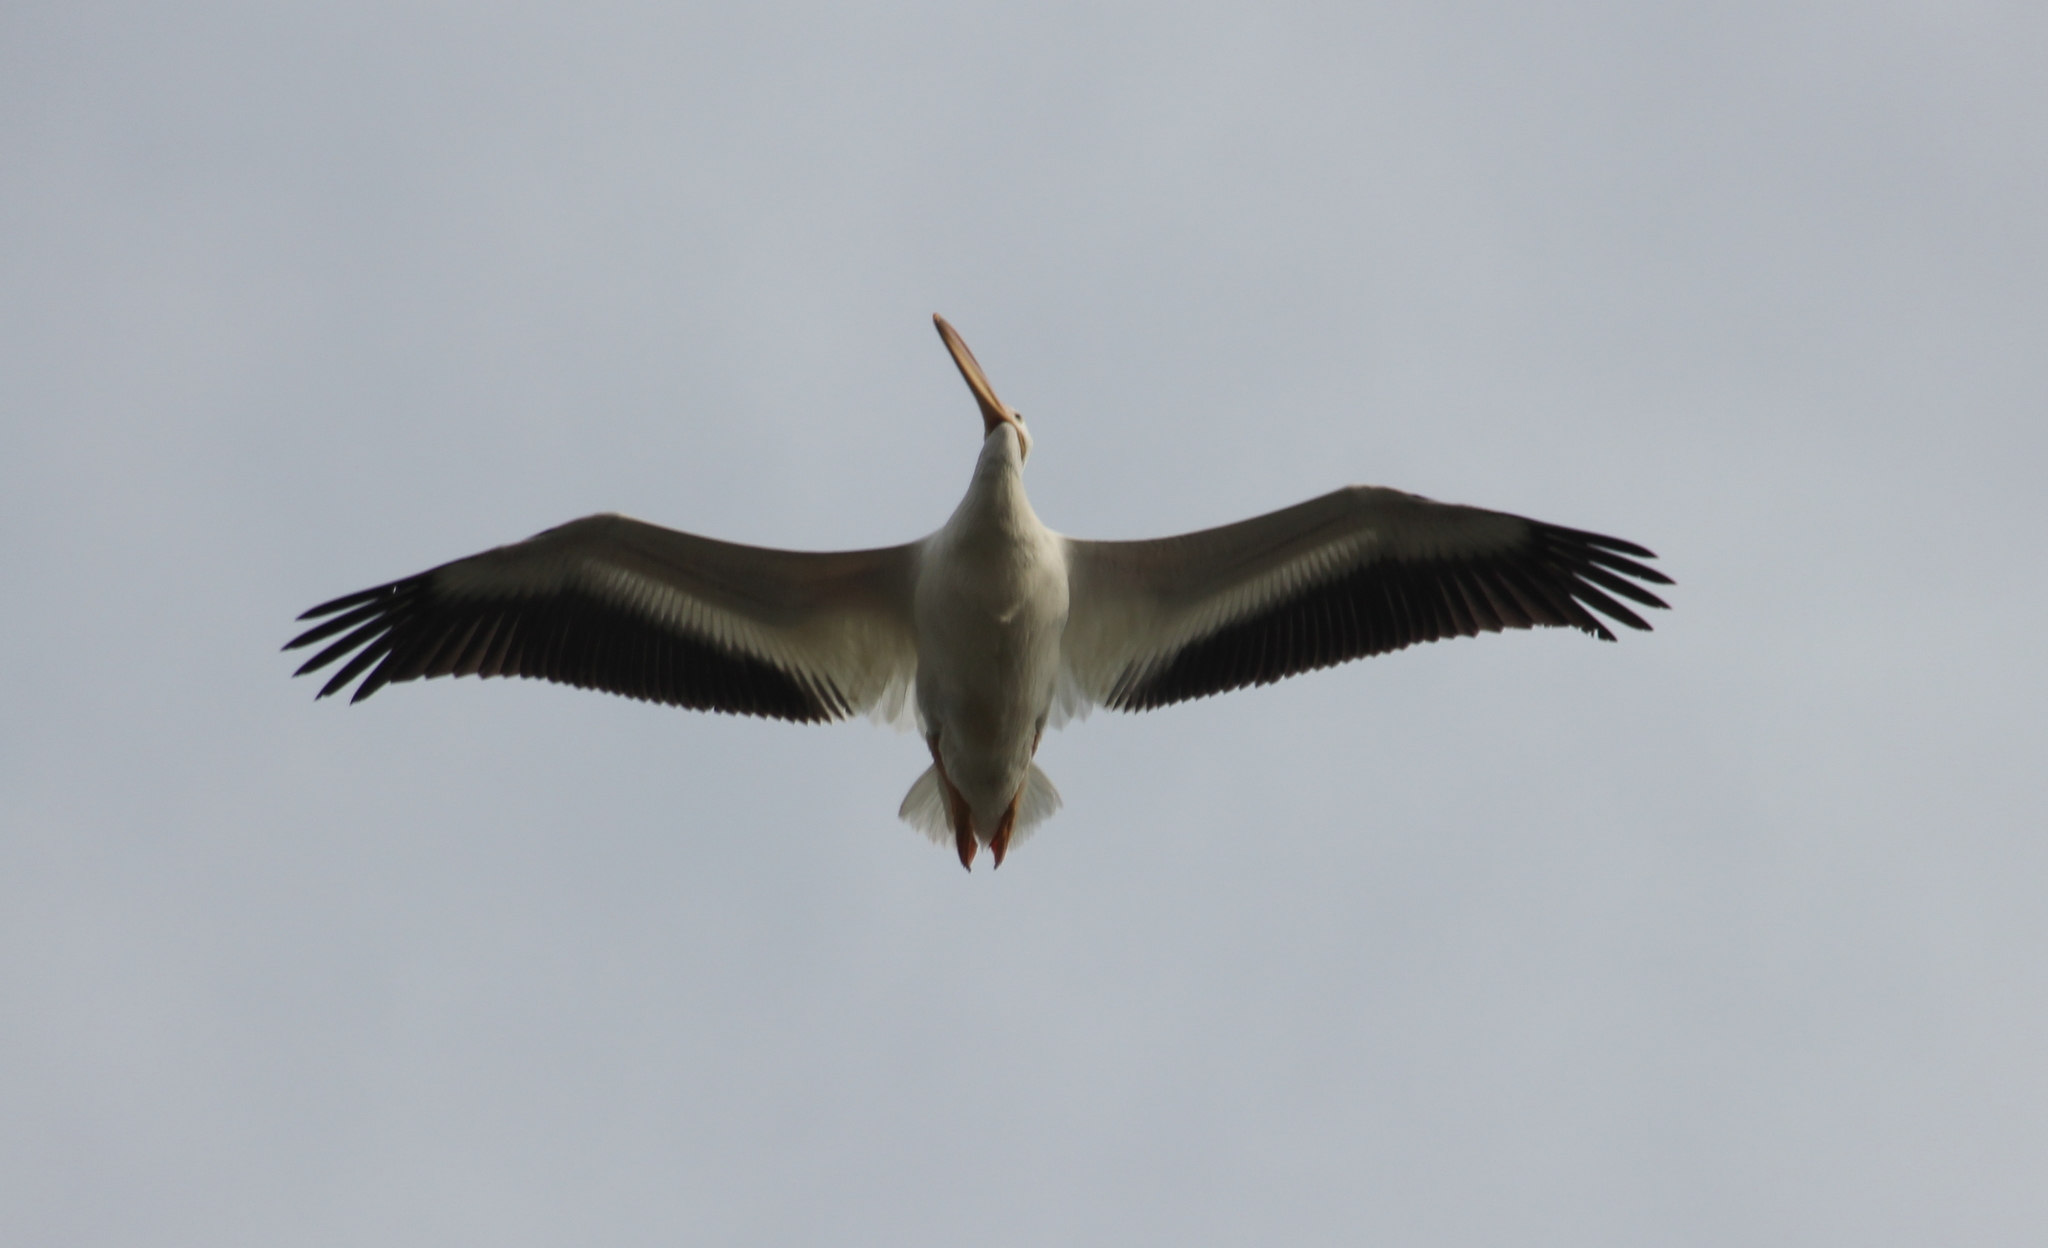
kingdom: Animalia
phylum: Chordata
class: Aves
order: Pelecaniformes
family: Pelecanidae
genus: Pelecanus
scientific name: Pelecanus erythrorhynchos
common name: American white pelican
